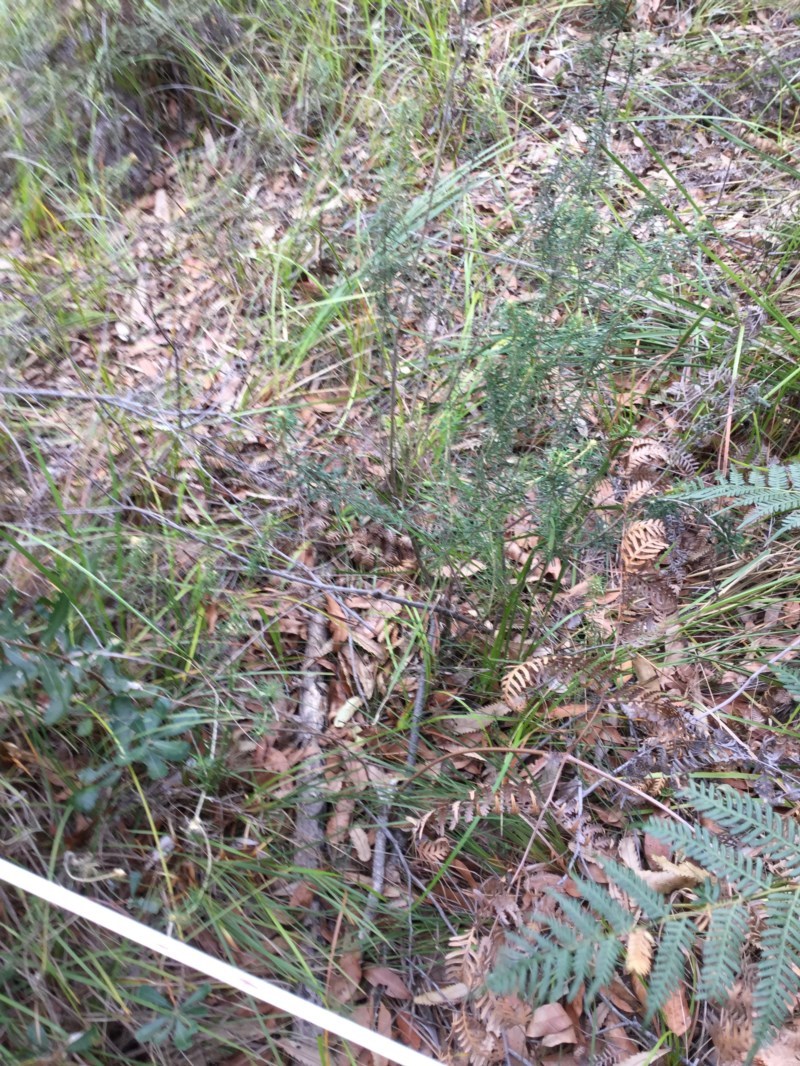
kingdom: Plantae
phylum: Tracheophyta
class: Magnoliopsida
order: Apiales
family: Araliaceae
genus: Astrotricha
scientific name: Astrotricha
